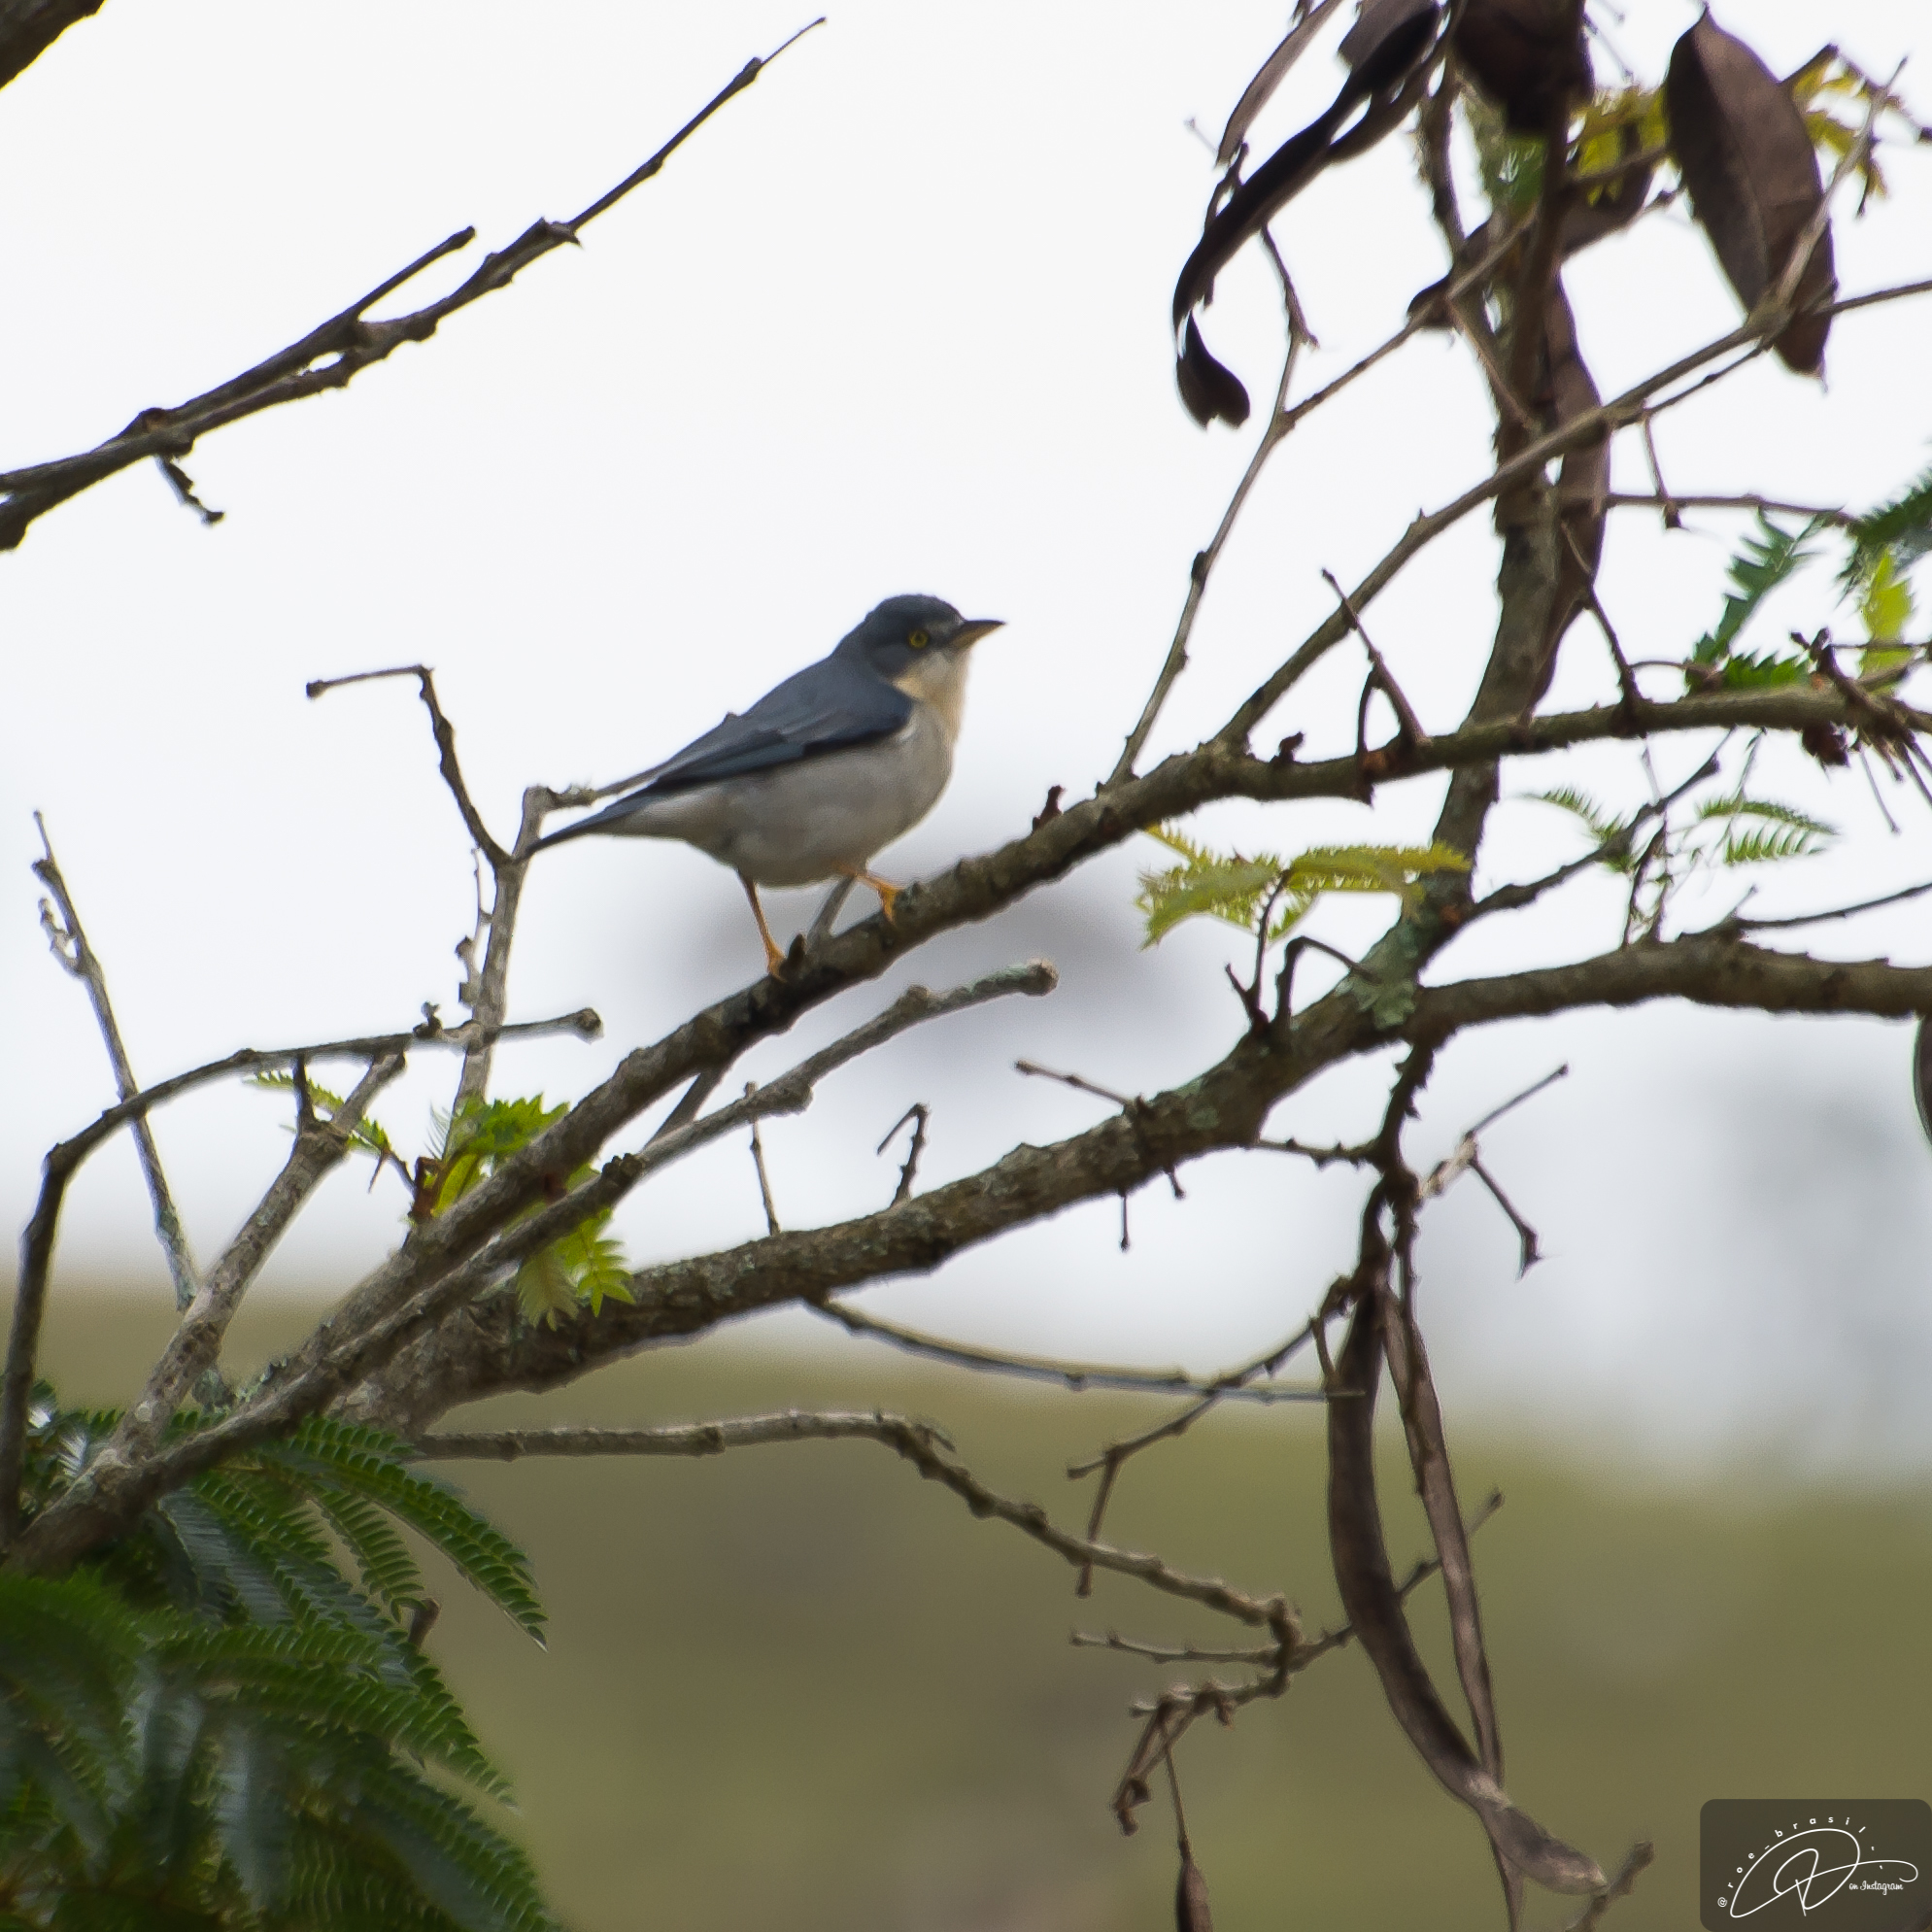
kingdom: Animalia
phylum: Chordata
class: Aves
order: Passeriformes
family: Thraupidae
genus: Nemosia
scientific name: Nemosia pileata
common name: Hooded tanager
